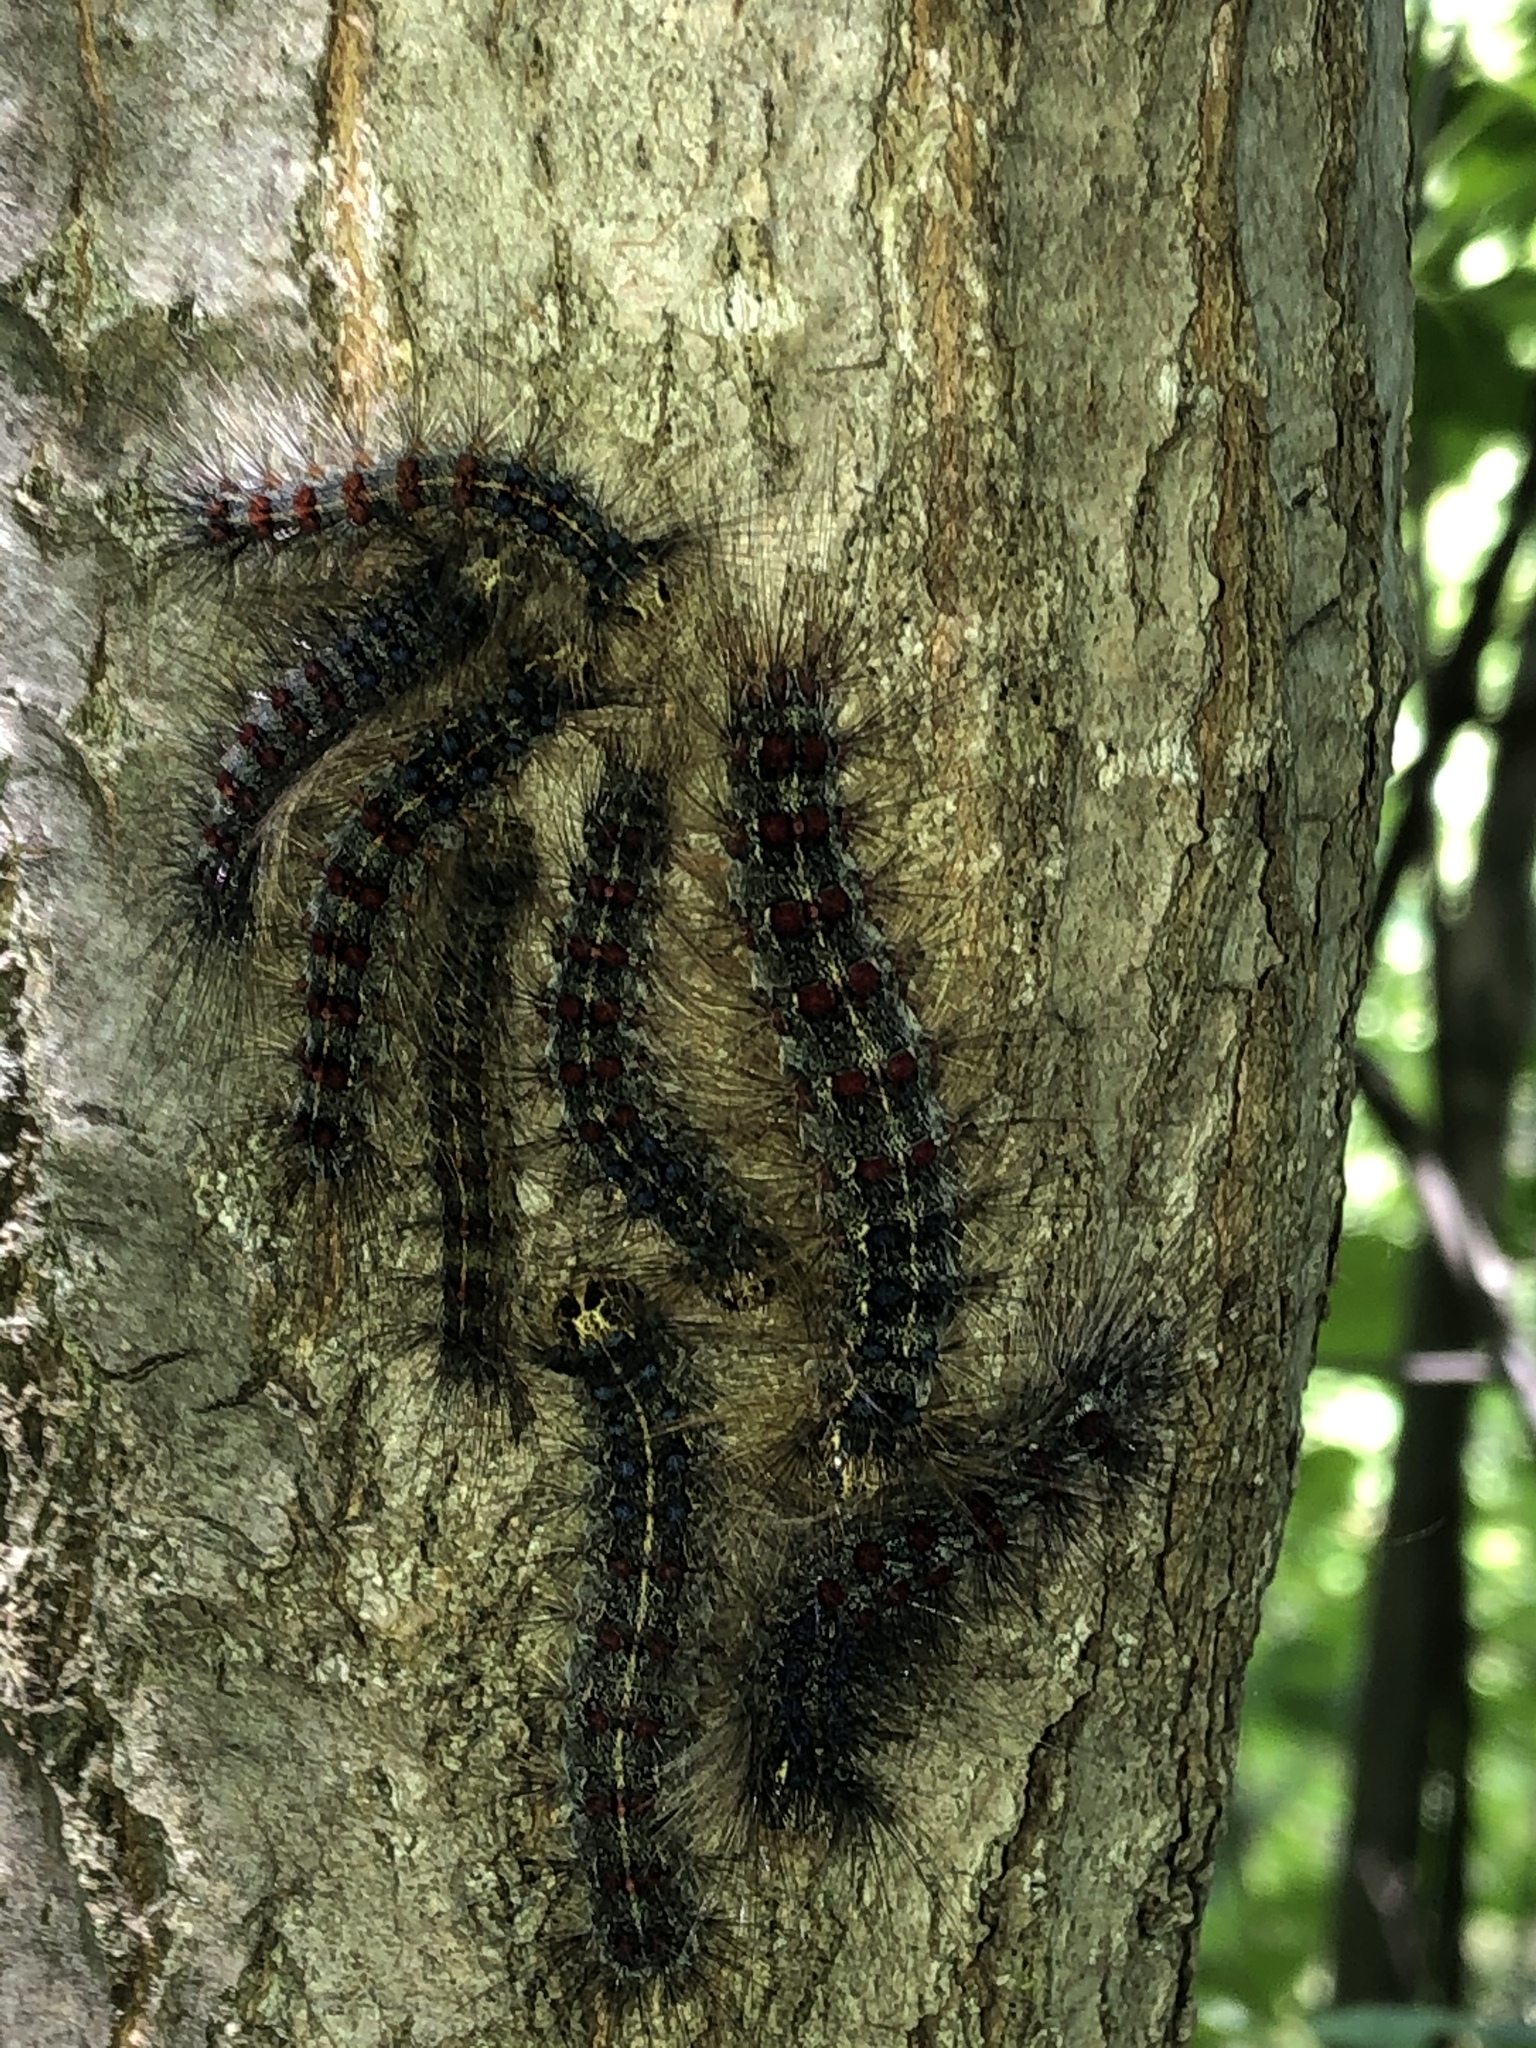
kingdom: Animalia
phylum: Arthropoda
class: Insecta
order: Lepidoptera
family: Erebidae
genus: Lymantria
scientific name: Lymantria dispar
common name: Gypsy moth
